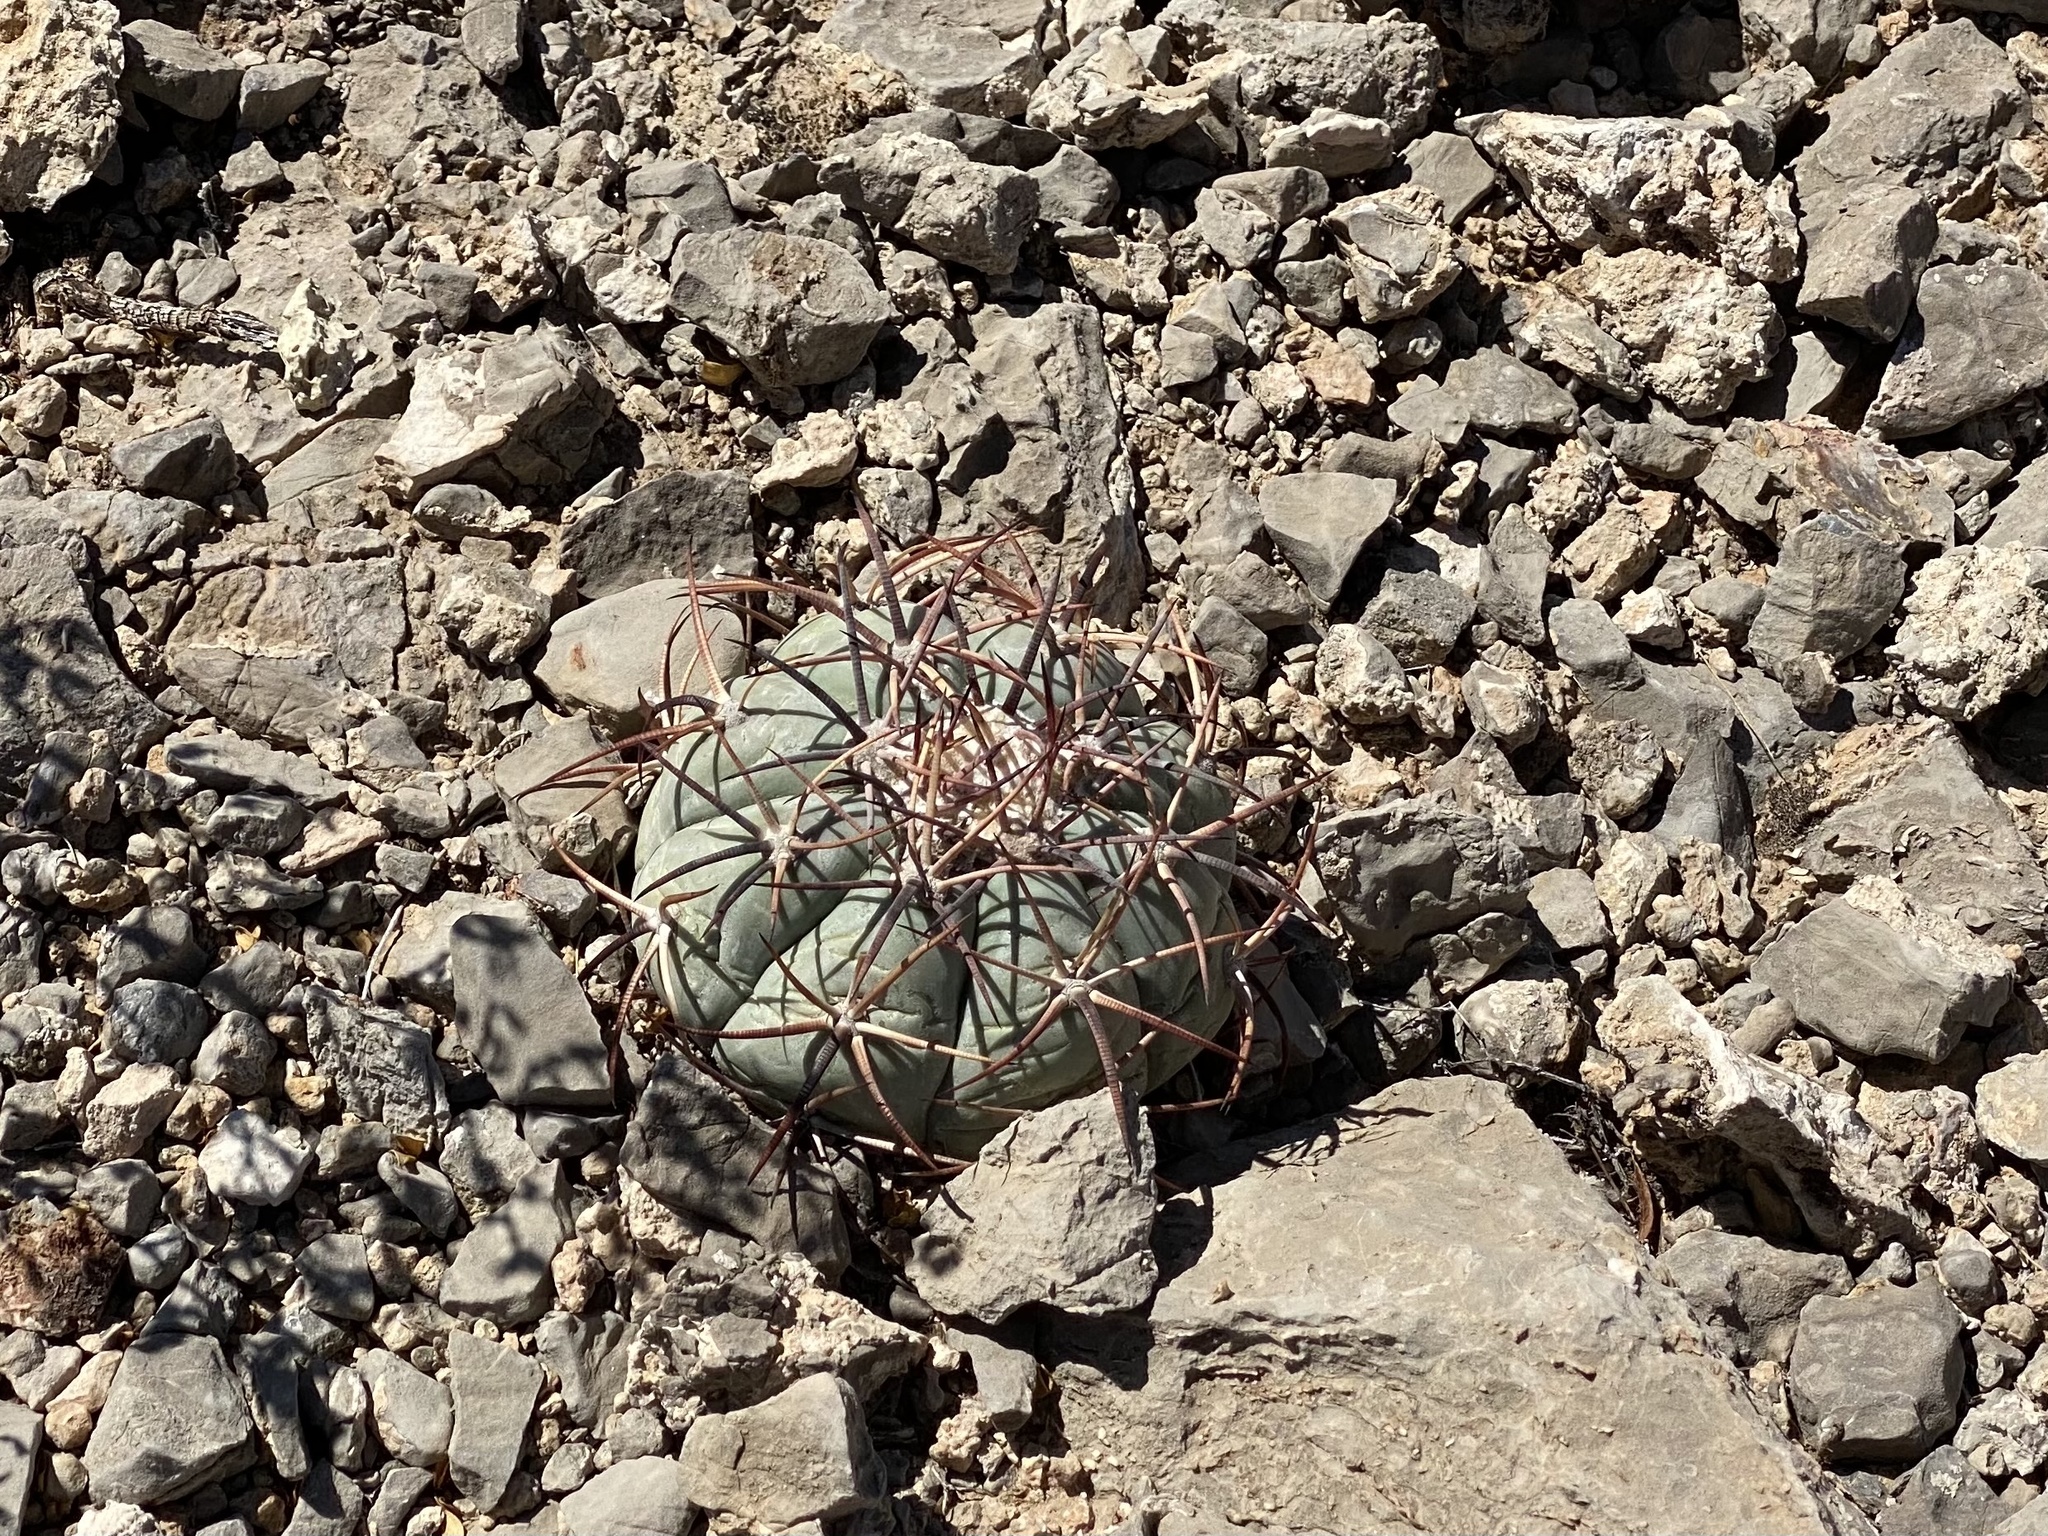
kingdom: Plantae
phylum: Tracheophyta
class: Magnoliopsida
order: Caryophyllales
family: Cactaceae
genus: Echinocactus
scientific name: Echinocactus horizonthalonius
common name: Devilshead
